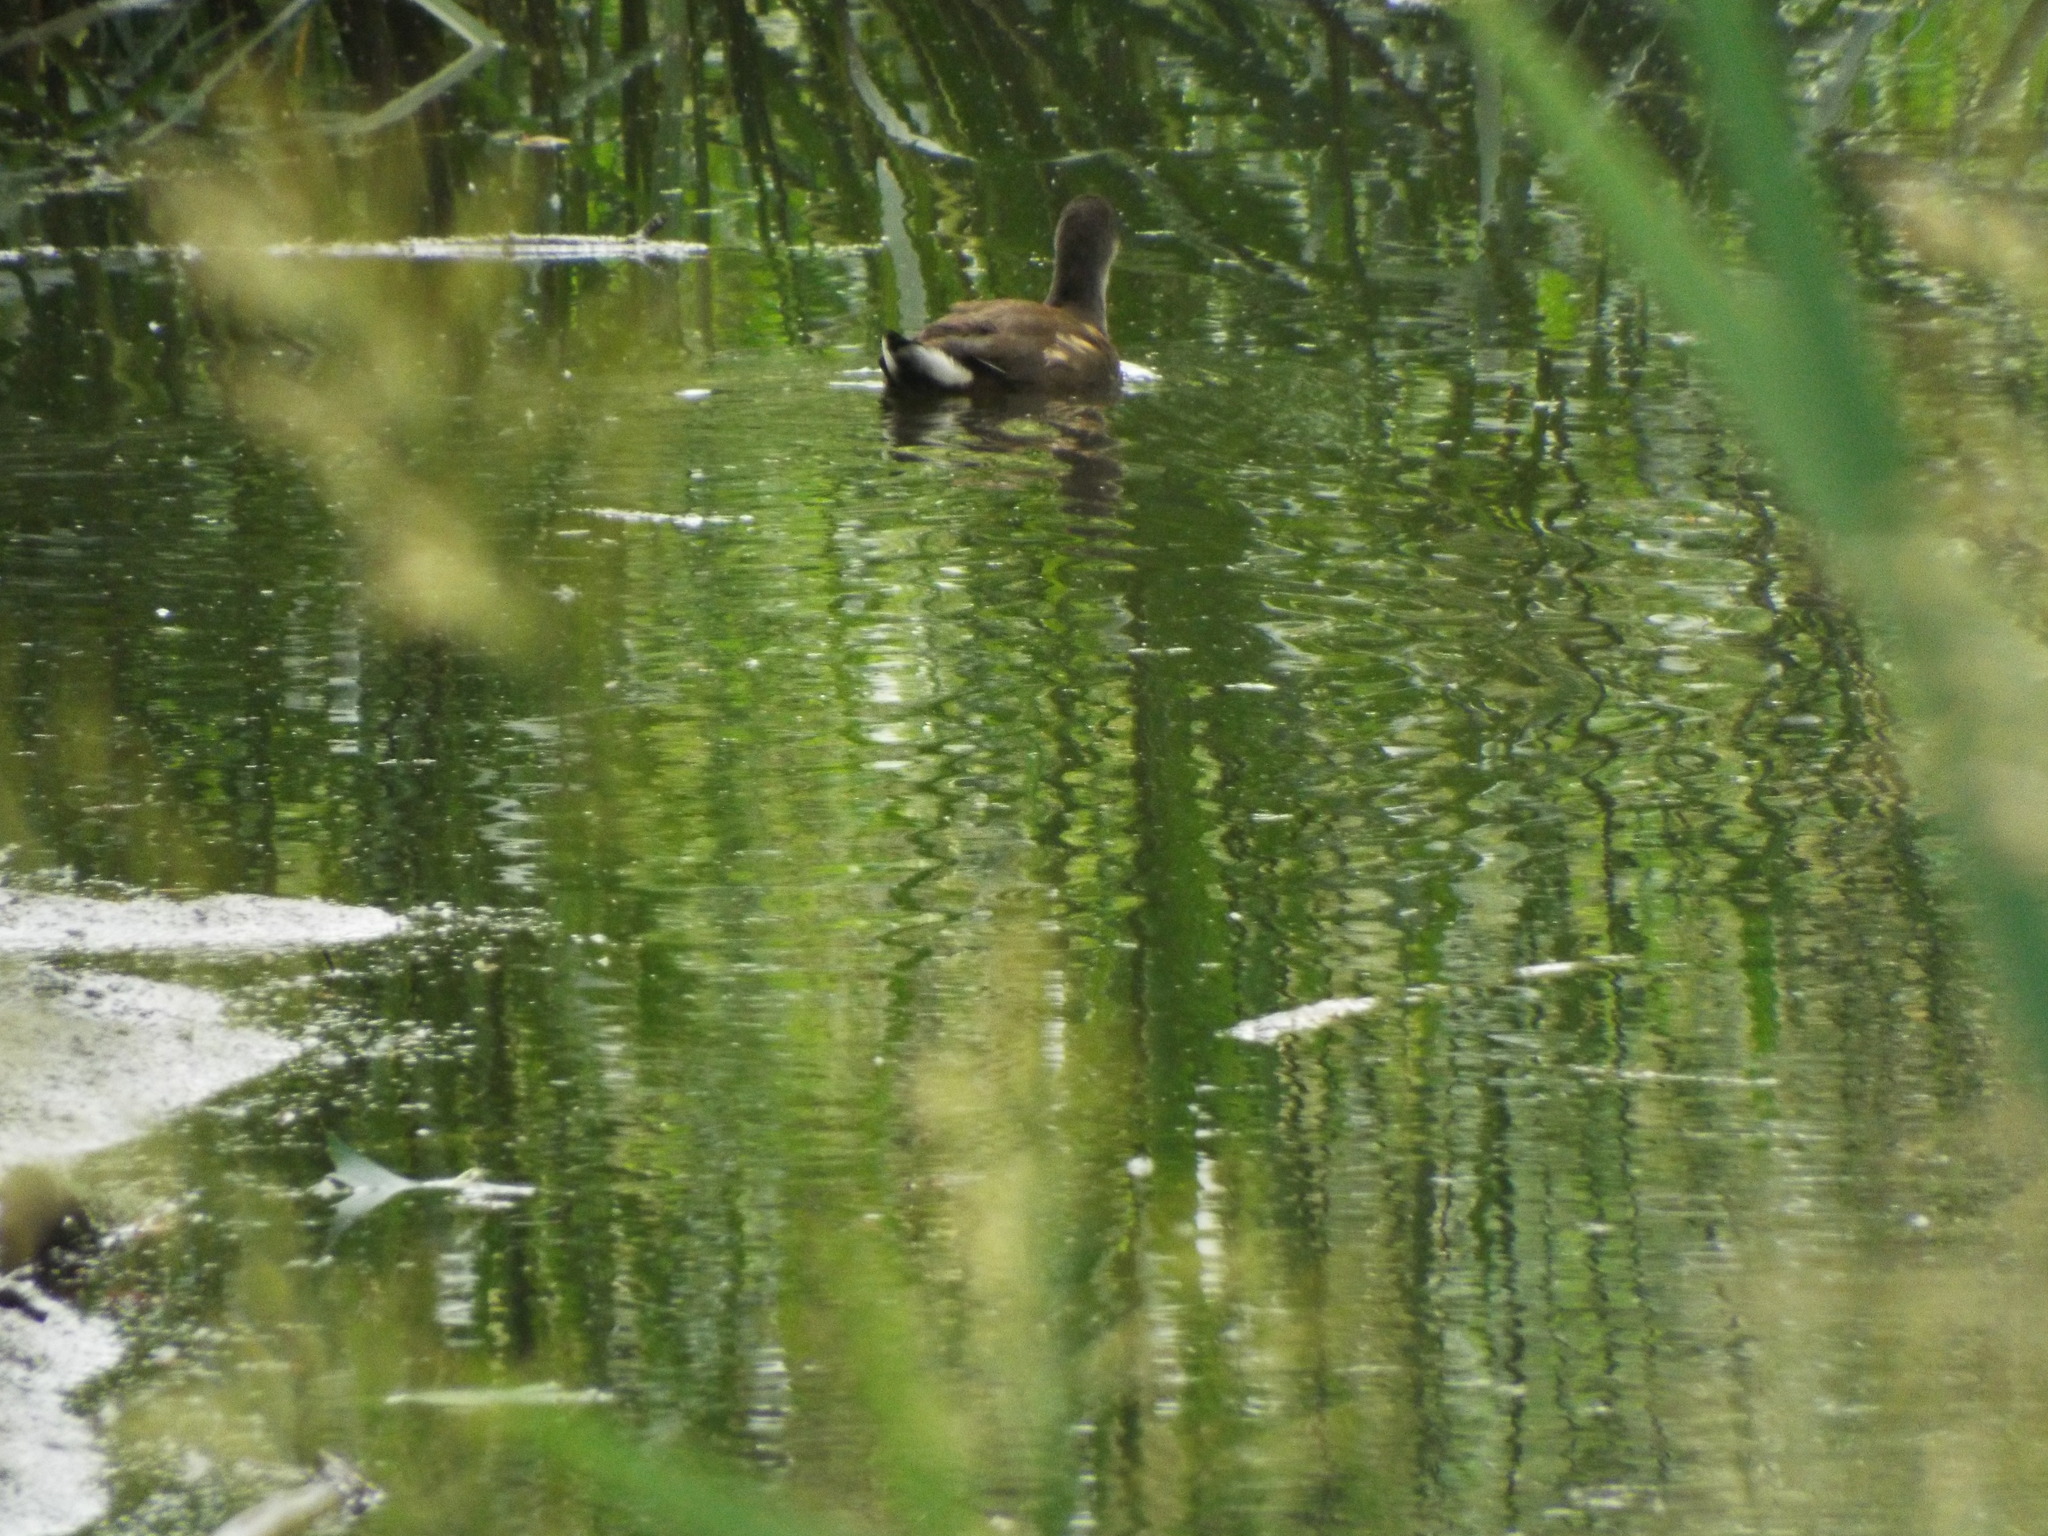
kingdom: Animalia
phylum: Chordata
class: Aves
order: Gruiformes
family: Rallidae
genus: Gallinula
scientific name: Gallinula chloropus
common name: Common moorhen
